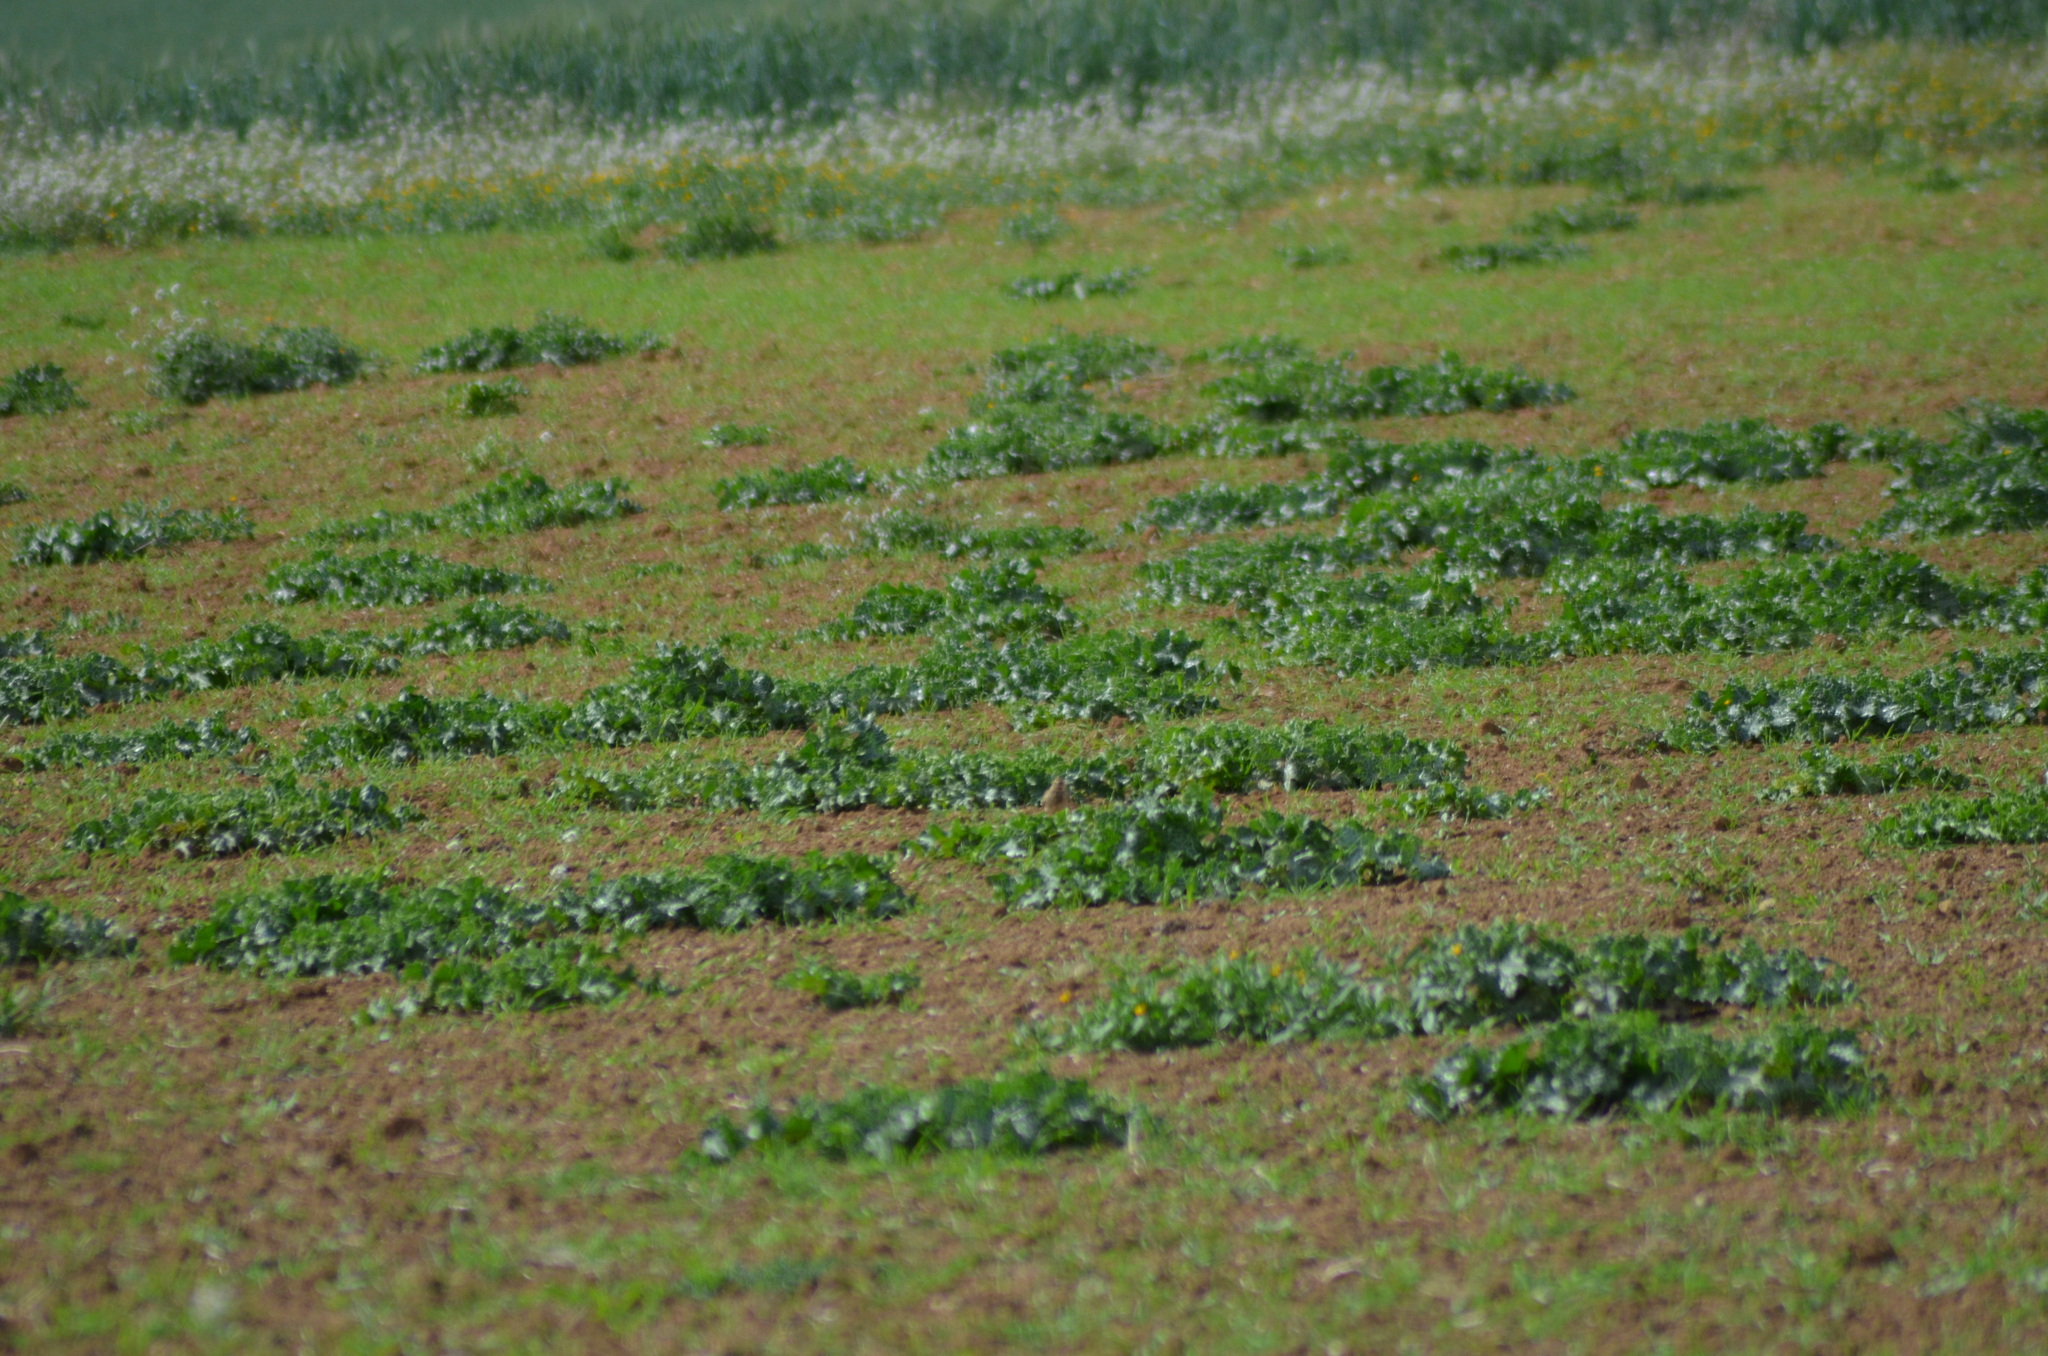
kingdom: Animalia
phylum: Chordata
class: Aves
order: Passeriformes
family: Alaudidae
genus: Galerida
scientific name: Galerida cristata
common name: Crested lark
